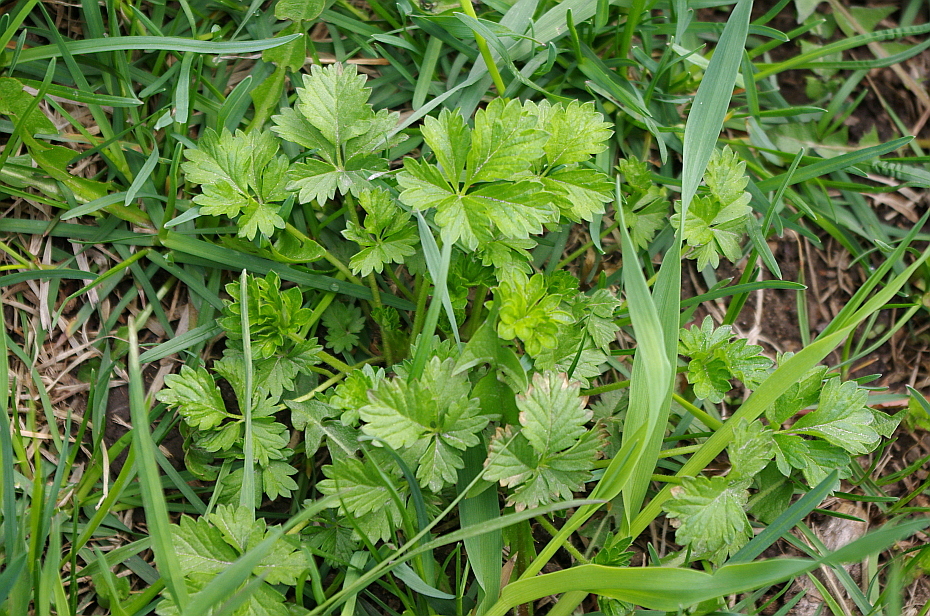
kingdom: Plantae
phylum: Tracheophyta
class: Magnoliopsida
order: Rosales
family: Rosaceae
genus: Potentilla
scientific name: Potentilla intermedia
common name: Downy cinquefoil
